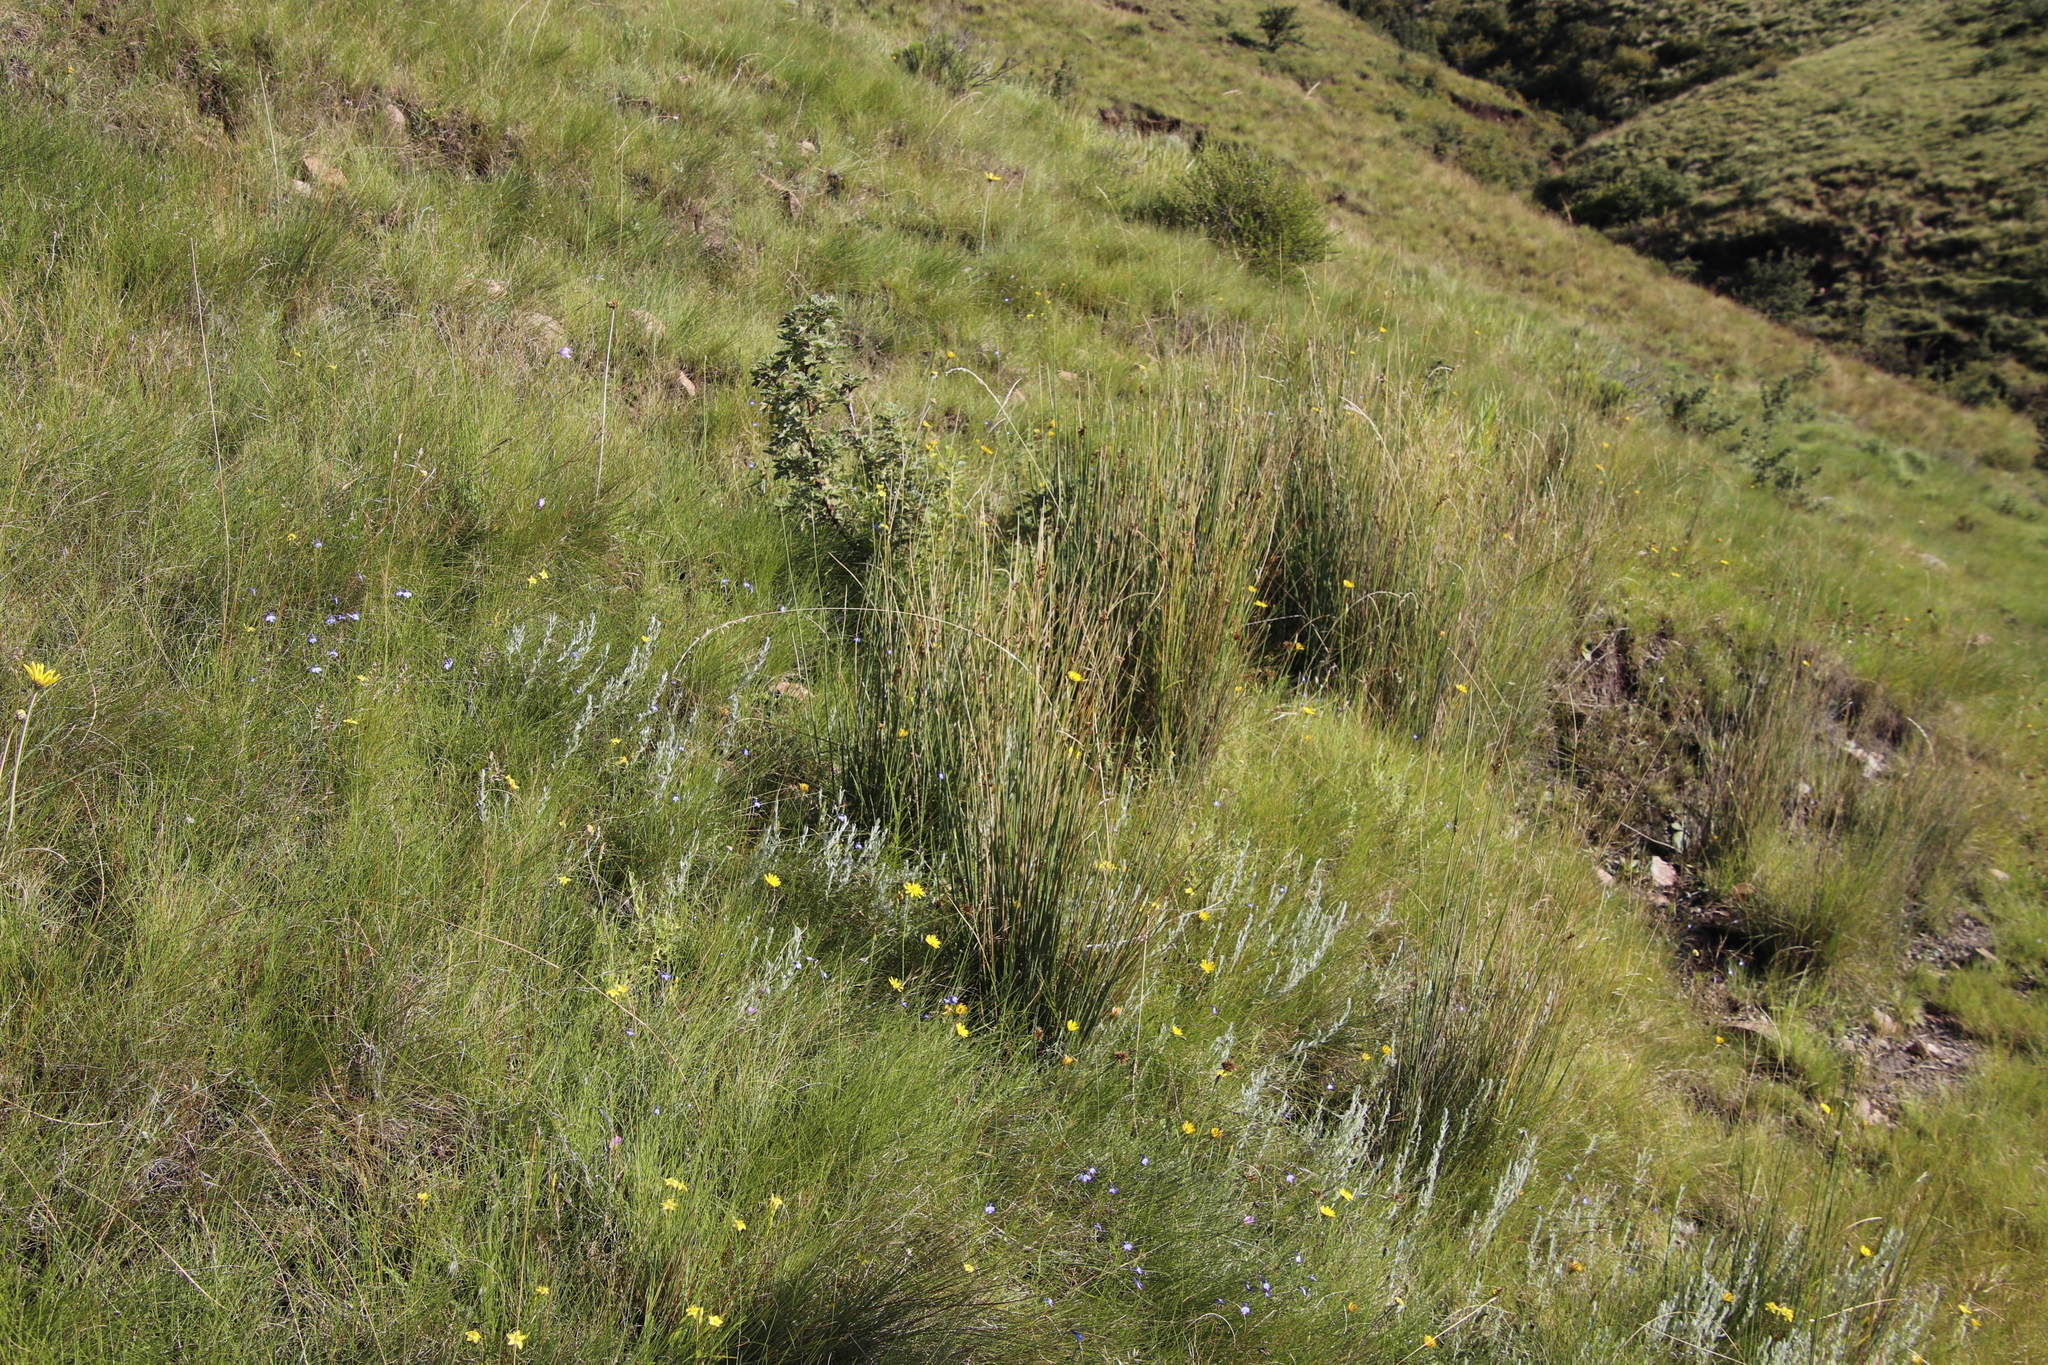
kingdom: Plantae
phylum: Tracheophyta
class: Liliopsida
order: Poales
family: Juncaceae
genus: Juncus
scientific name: Juncus rigidus
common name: Hard sea rush
